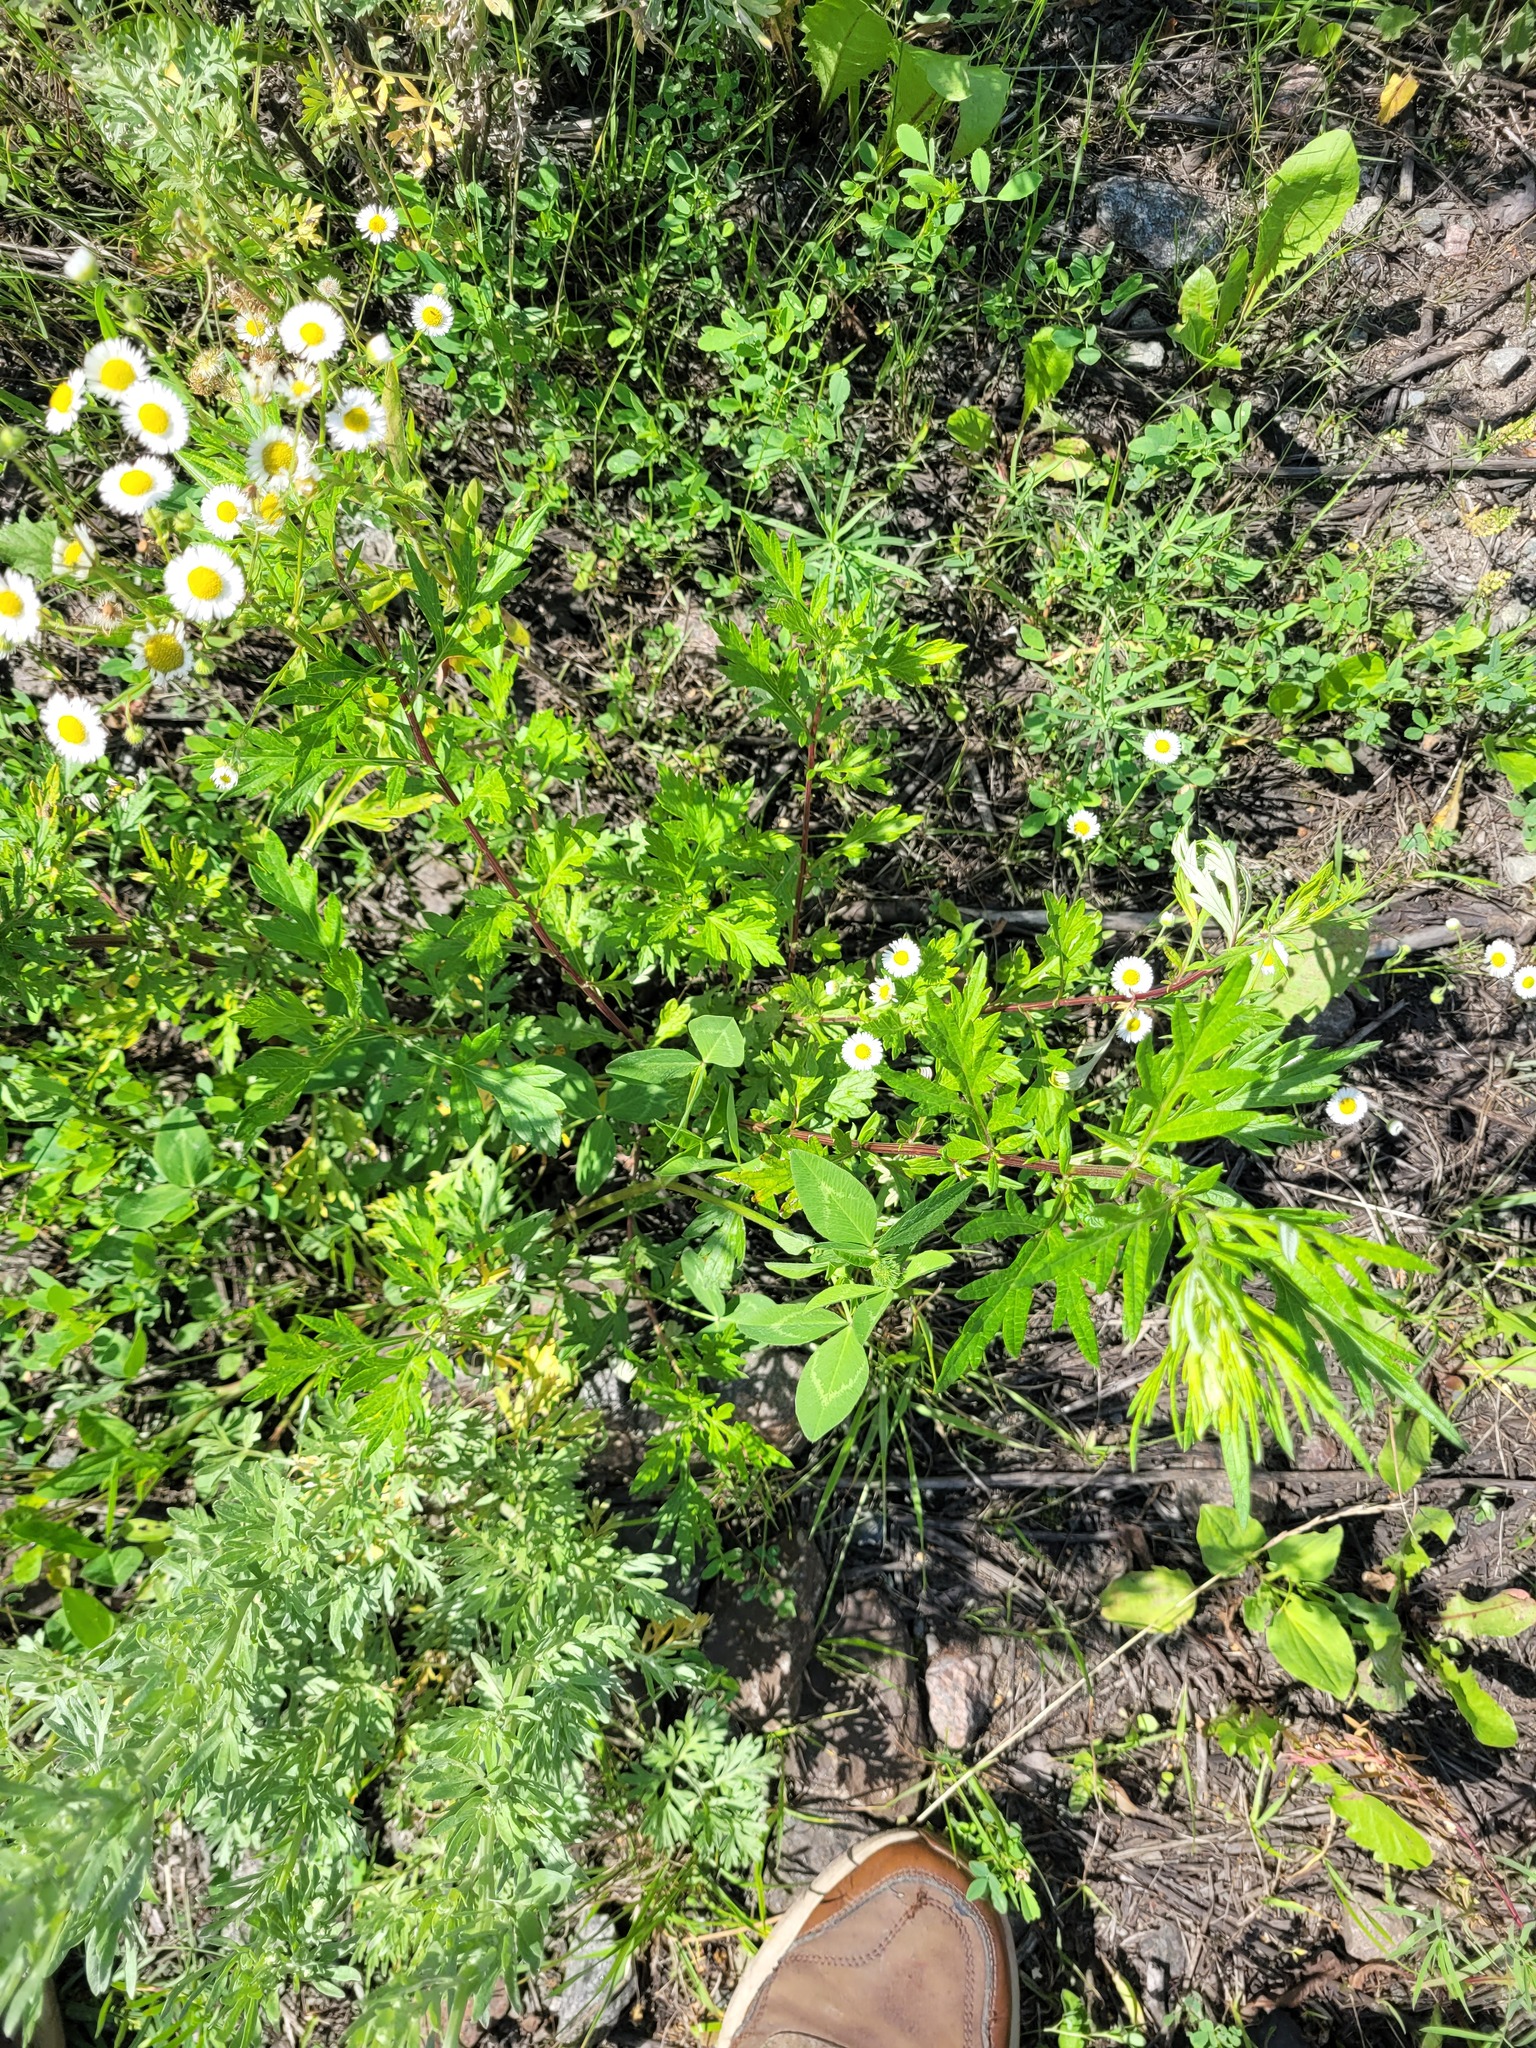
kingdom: Plantae
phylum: Tracheophyta
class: Magnoliopsida
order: Fabales
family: Fabaceae
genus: Trifolium
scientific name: Trifolium pratense
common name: Red clover
